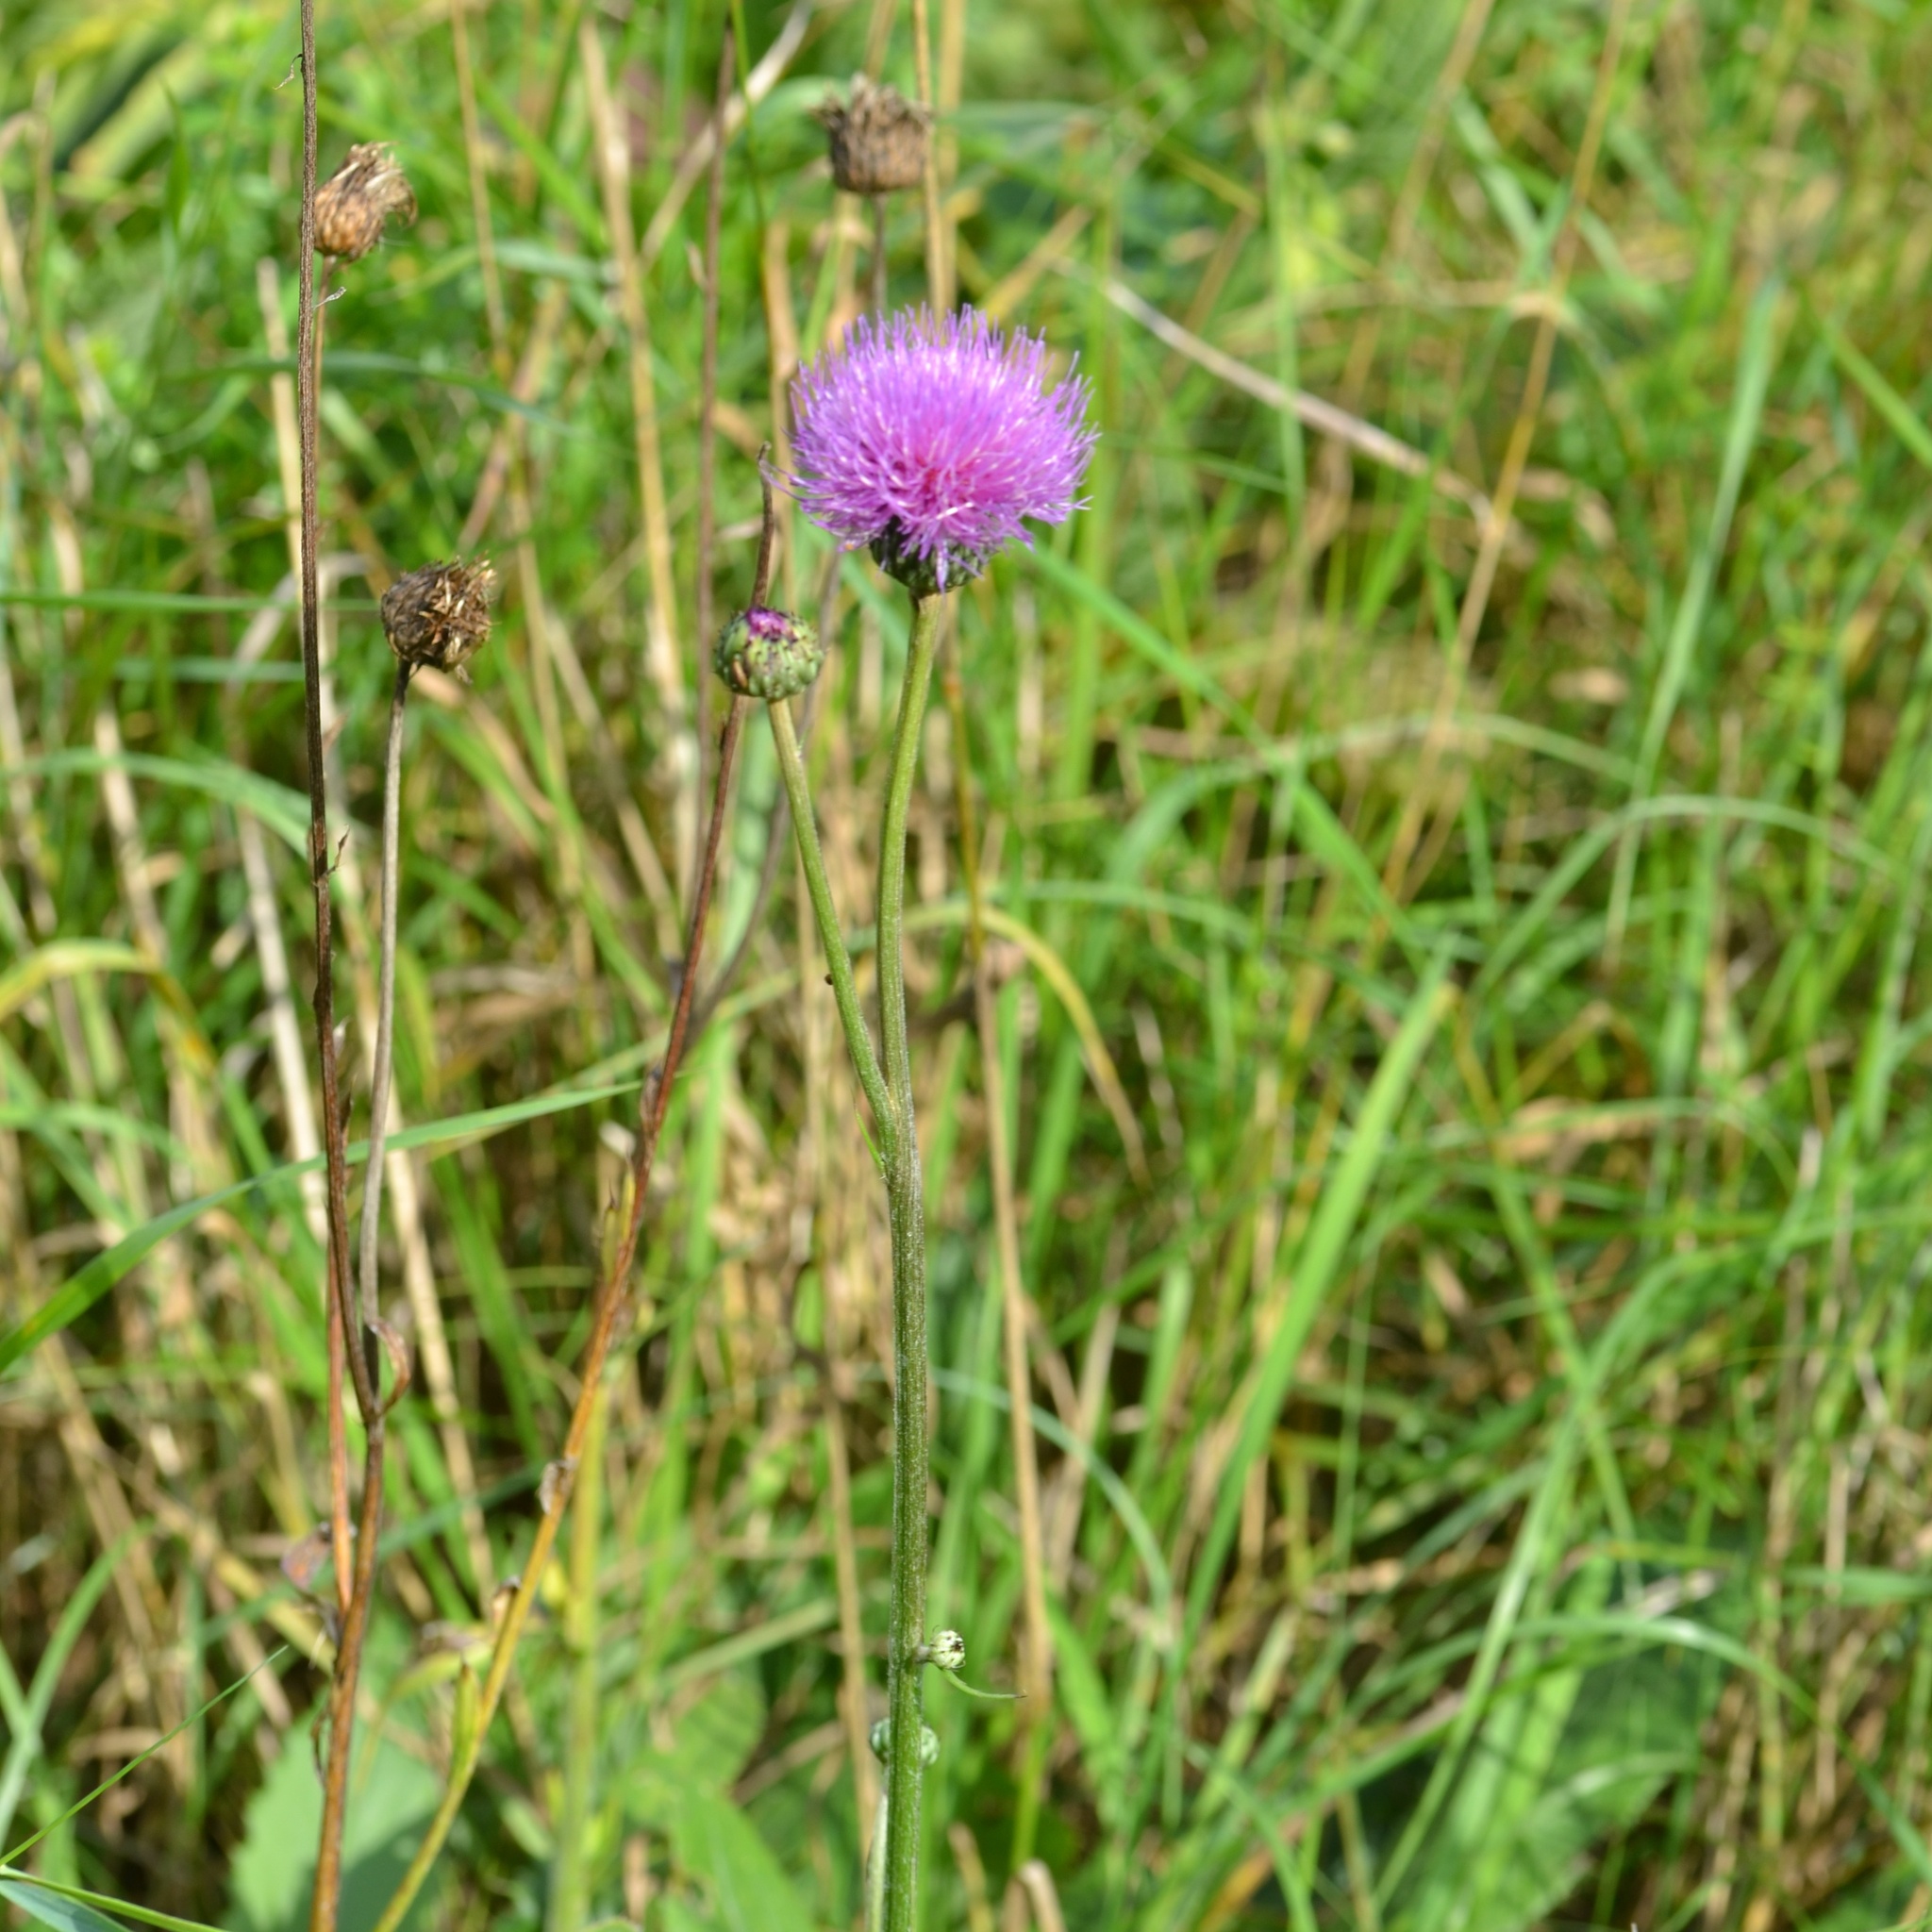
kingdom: Plantae
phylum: Tracheophyta
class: Magnoliopsida
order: Asterales
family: Asteraceae
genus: Cirsium
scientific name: Cirsium canum
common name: Queen anne's thistle
